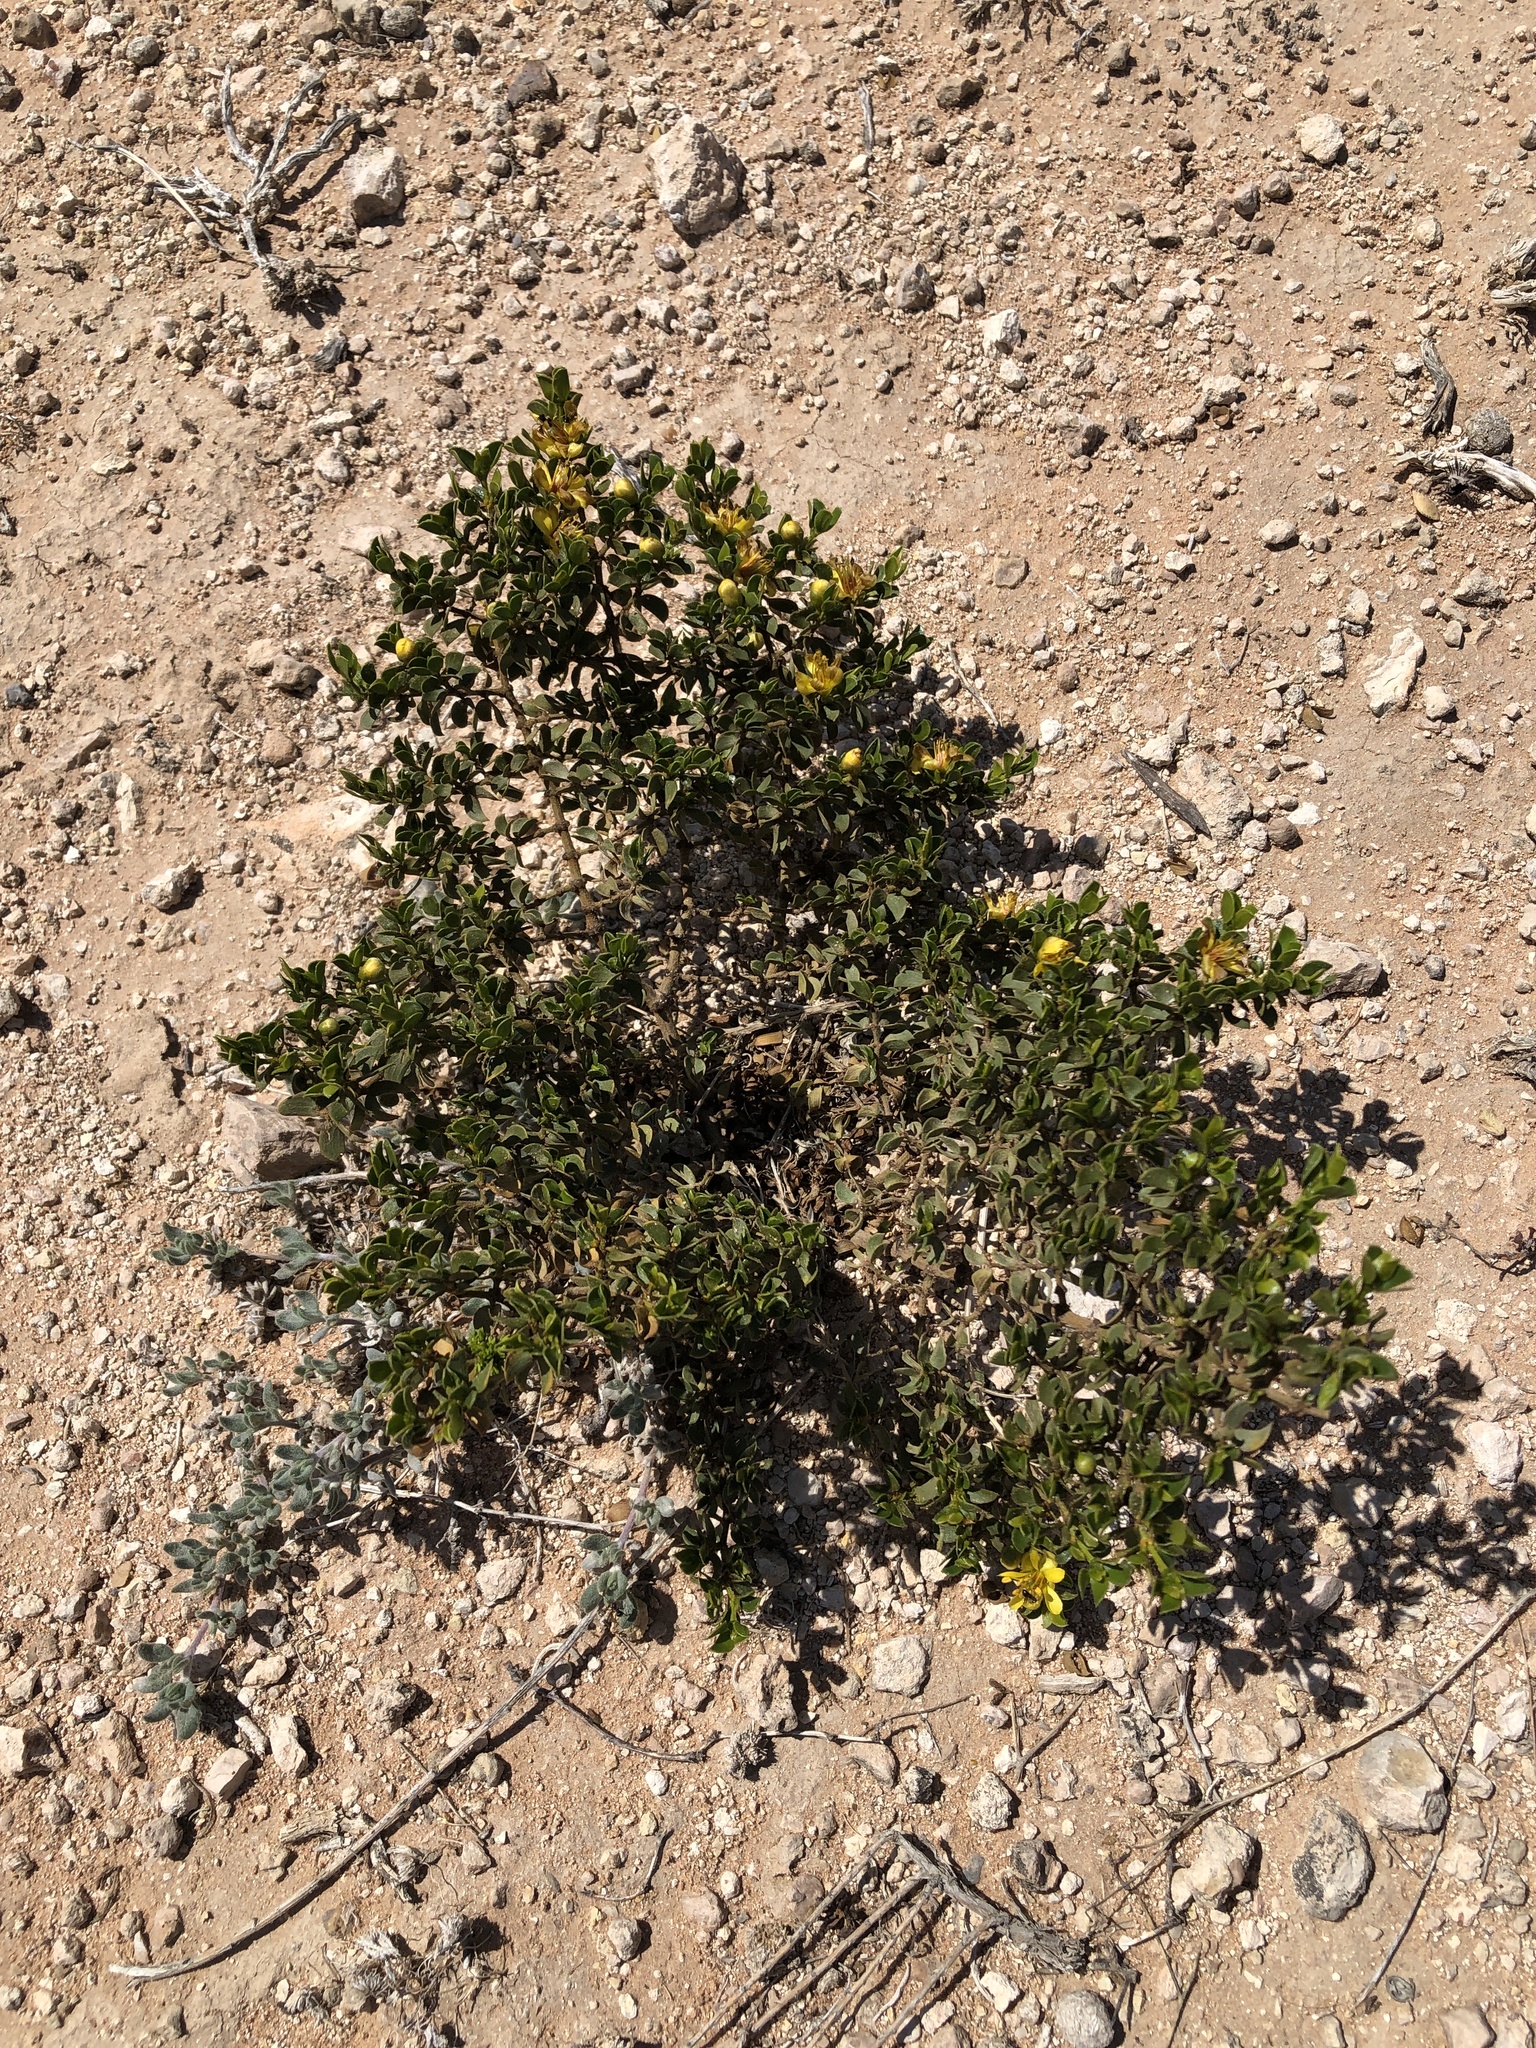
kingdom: Plantae
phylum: Tracheophyta
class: Magnoliopsida
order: Zygophyllales
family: Zygophyllaceae
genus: Larrea
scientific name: Larrea tridentata
